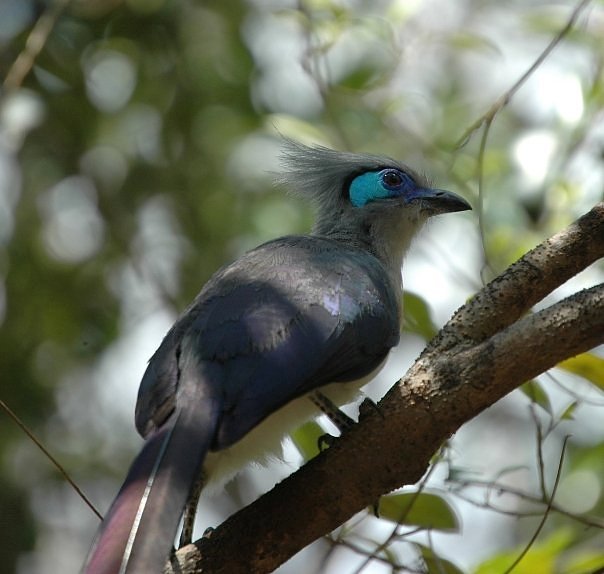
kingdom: Animalia
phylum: Chordata
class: Aves
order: Cuculiformes
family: Cuculidae
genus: Coua
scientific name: Coua cristata
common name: Crested coua
